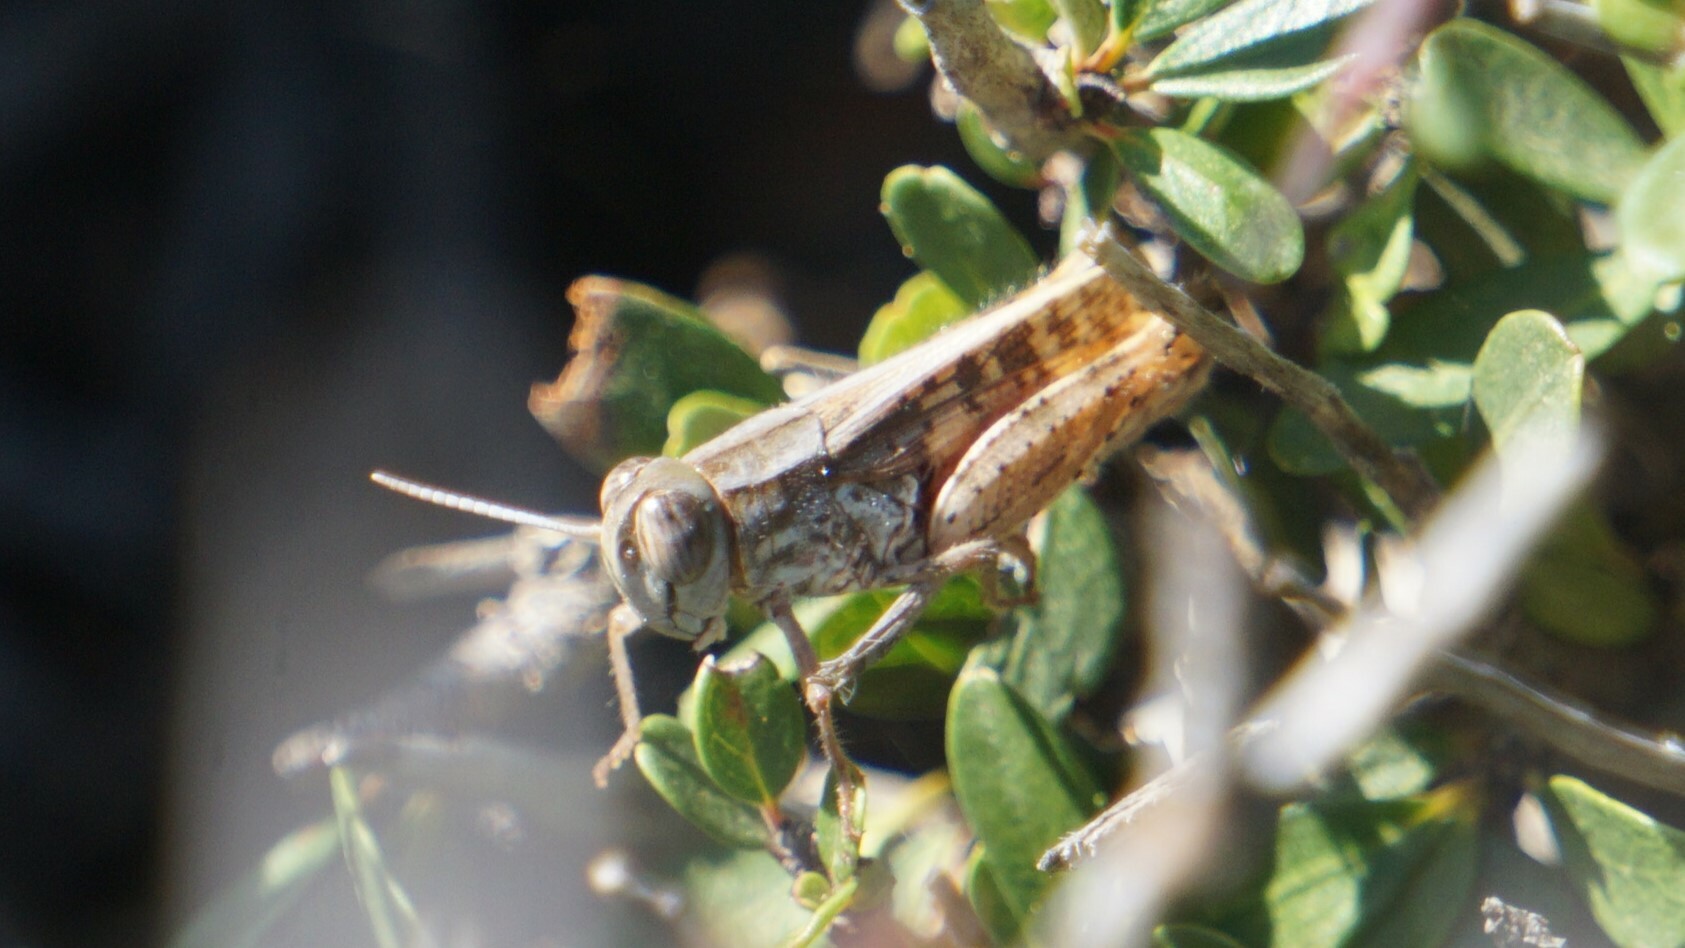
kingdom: Animalia
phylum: Arthropoda
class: Insecta
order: Orthoptera
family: Acrididae
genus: Calliptamus
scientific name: Calliptamus
